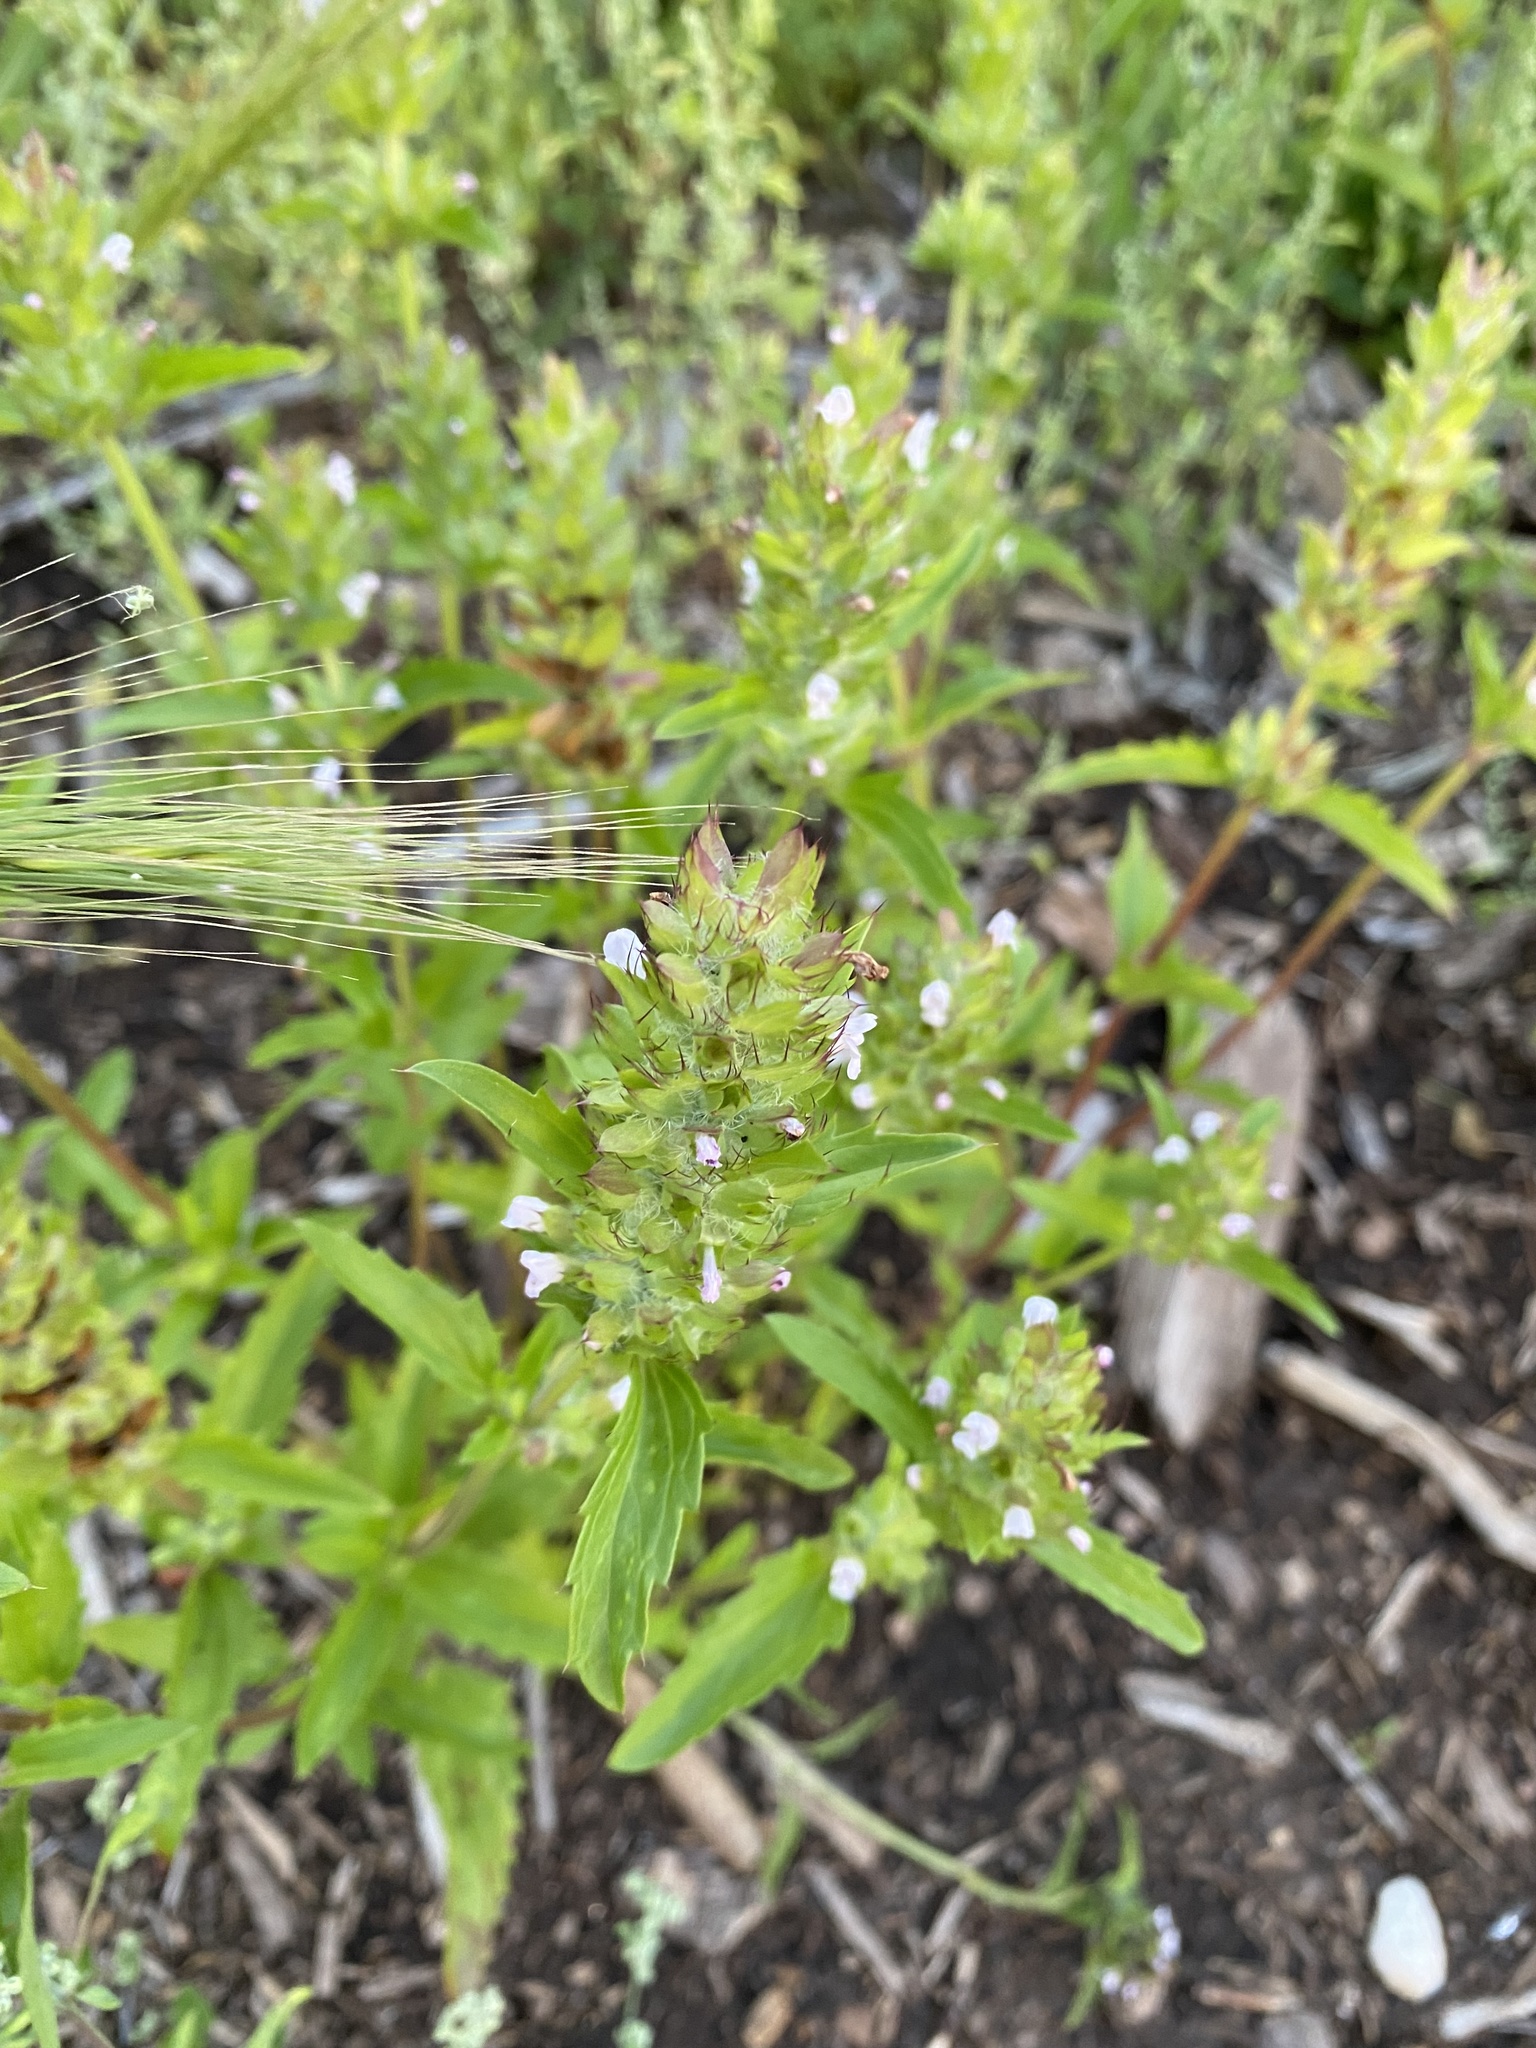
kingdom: Plantae
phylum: Tracheophyta
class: Magnoliopsida
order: Lamiales
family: Lamiaceae
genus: Dracocephalum
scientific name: Dracocephalum parviflorum
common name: American dragonhead
